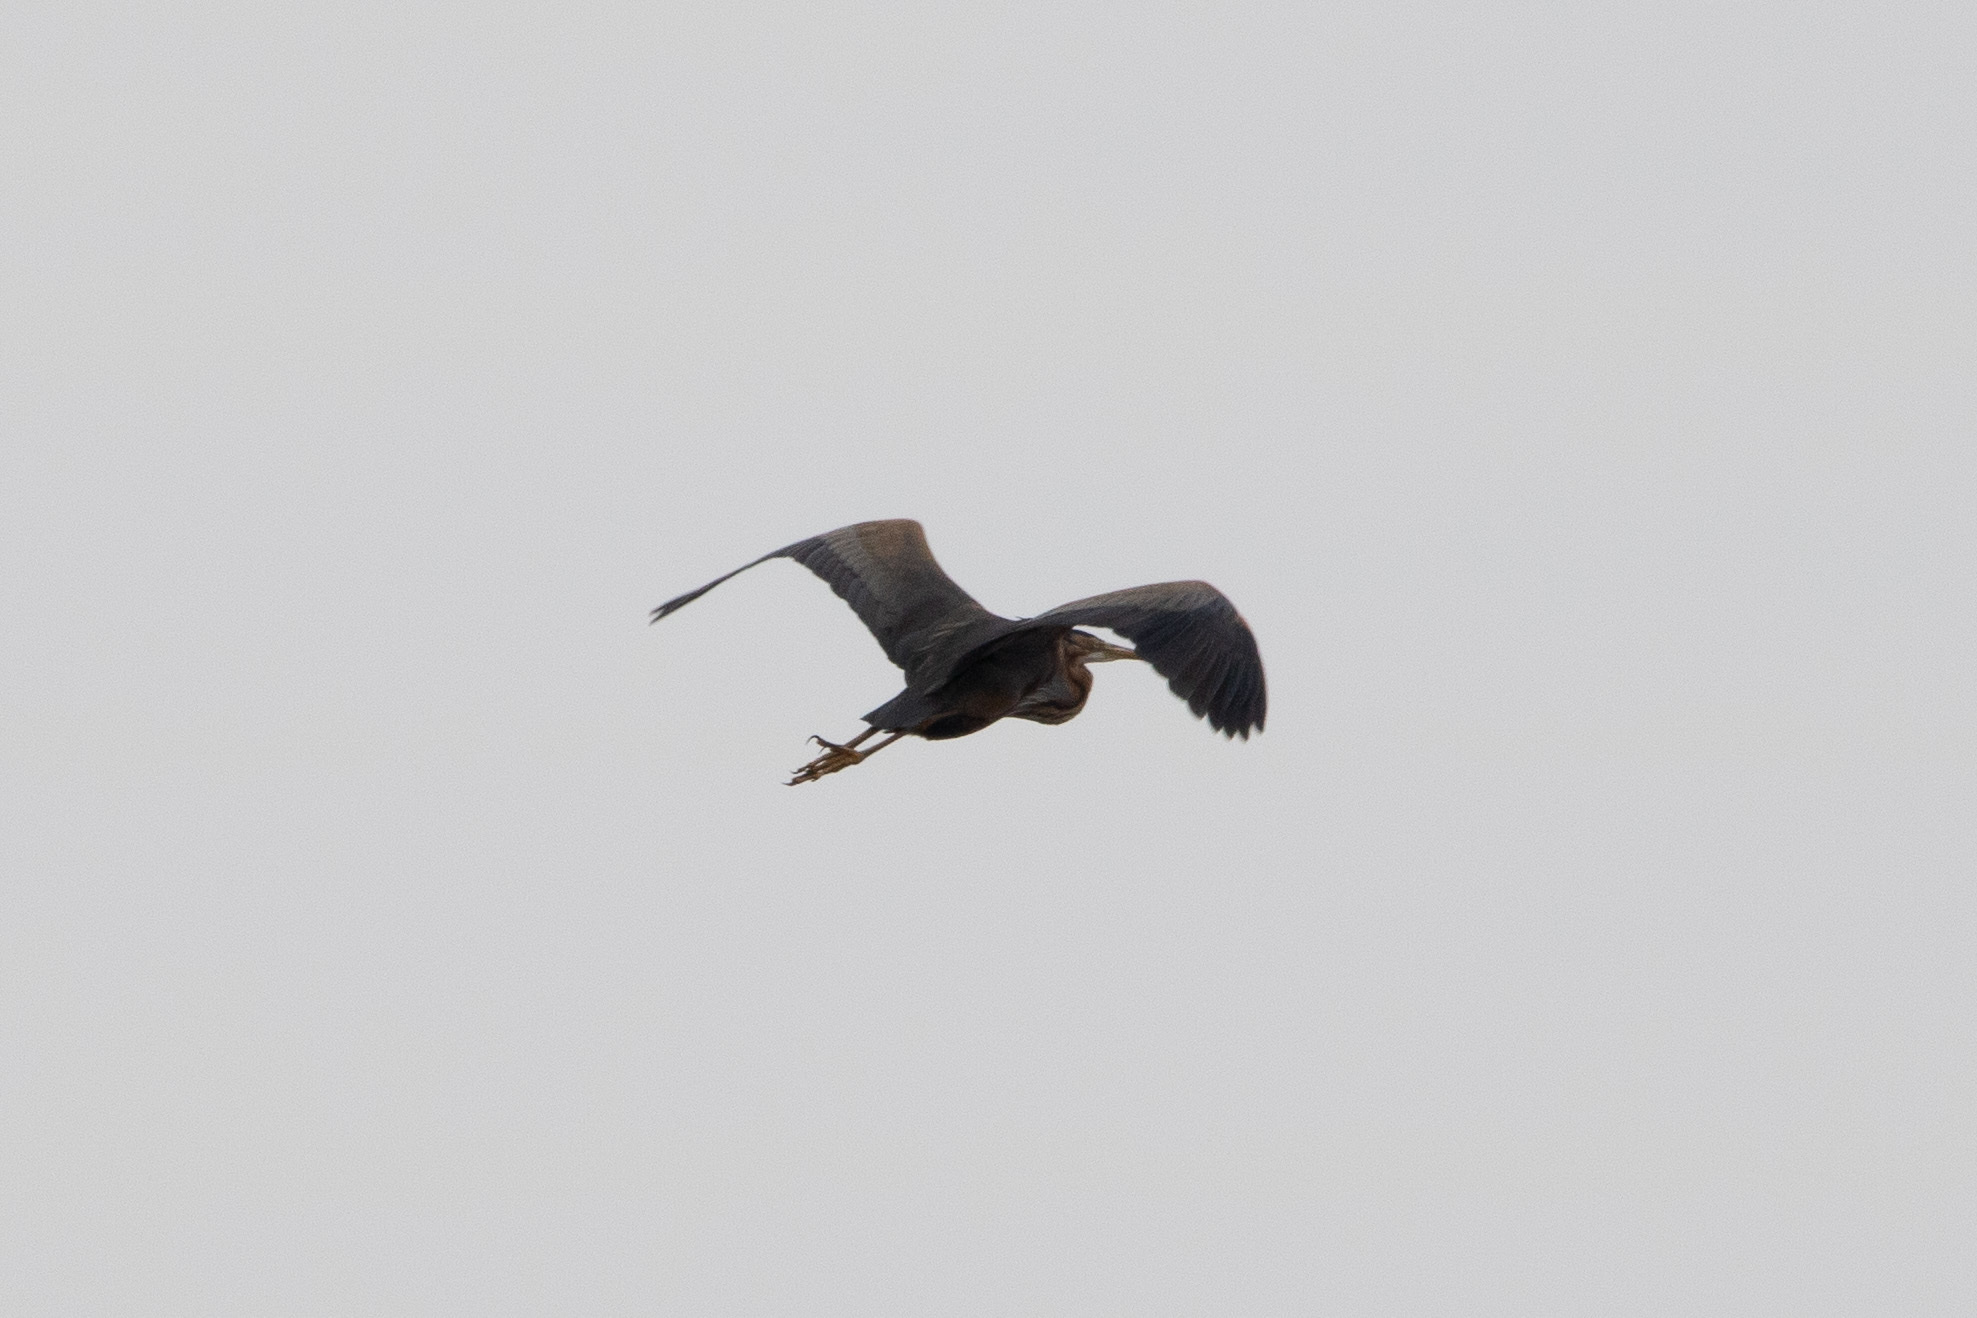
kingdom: Animalia
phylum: Chordata
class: Aves
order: Pelecaniformes
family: Ardeidae
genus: Ardea
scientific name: Ardea purpurea
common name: Purple heron
